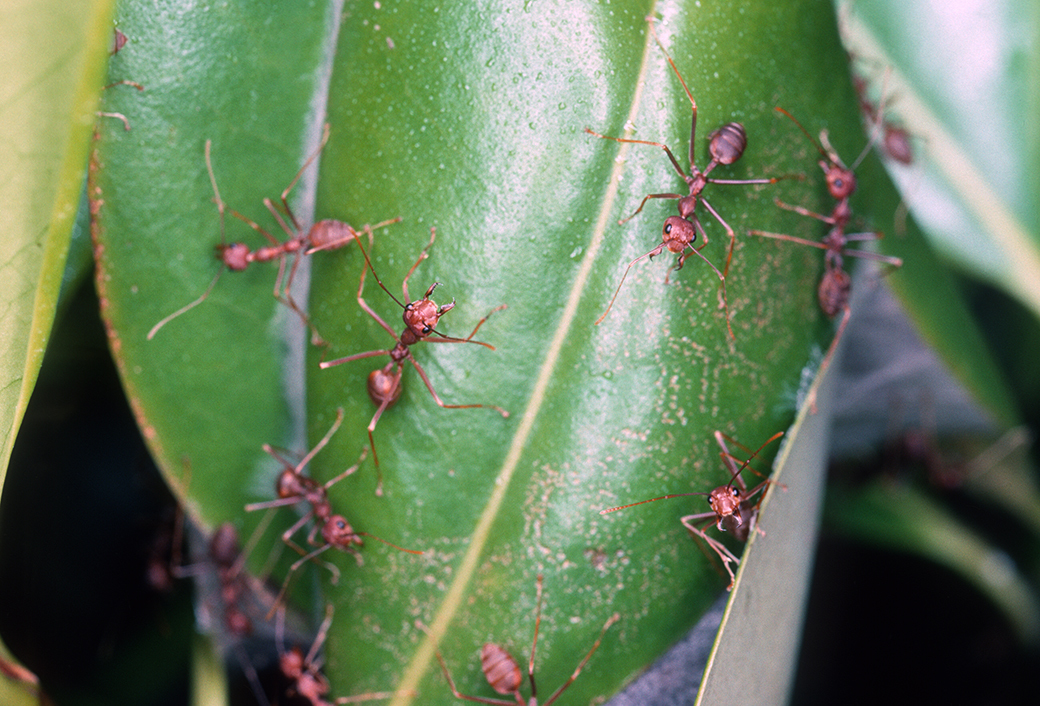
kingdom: Animalia
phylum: Arthropoda
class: Insecta
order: Hymenoptera
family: Formicidae
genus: Oecophylla
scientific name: Oecophylla smaragdina
